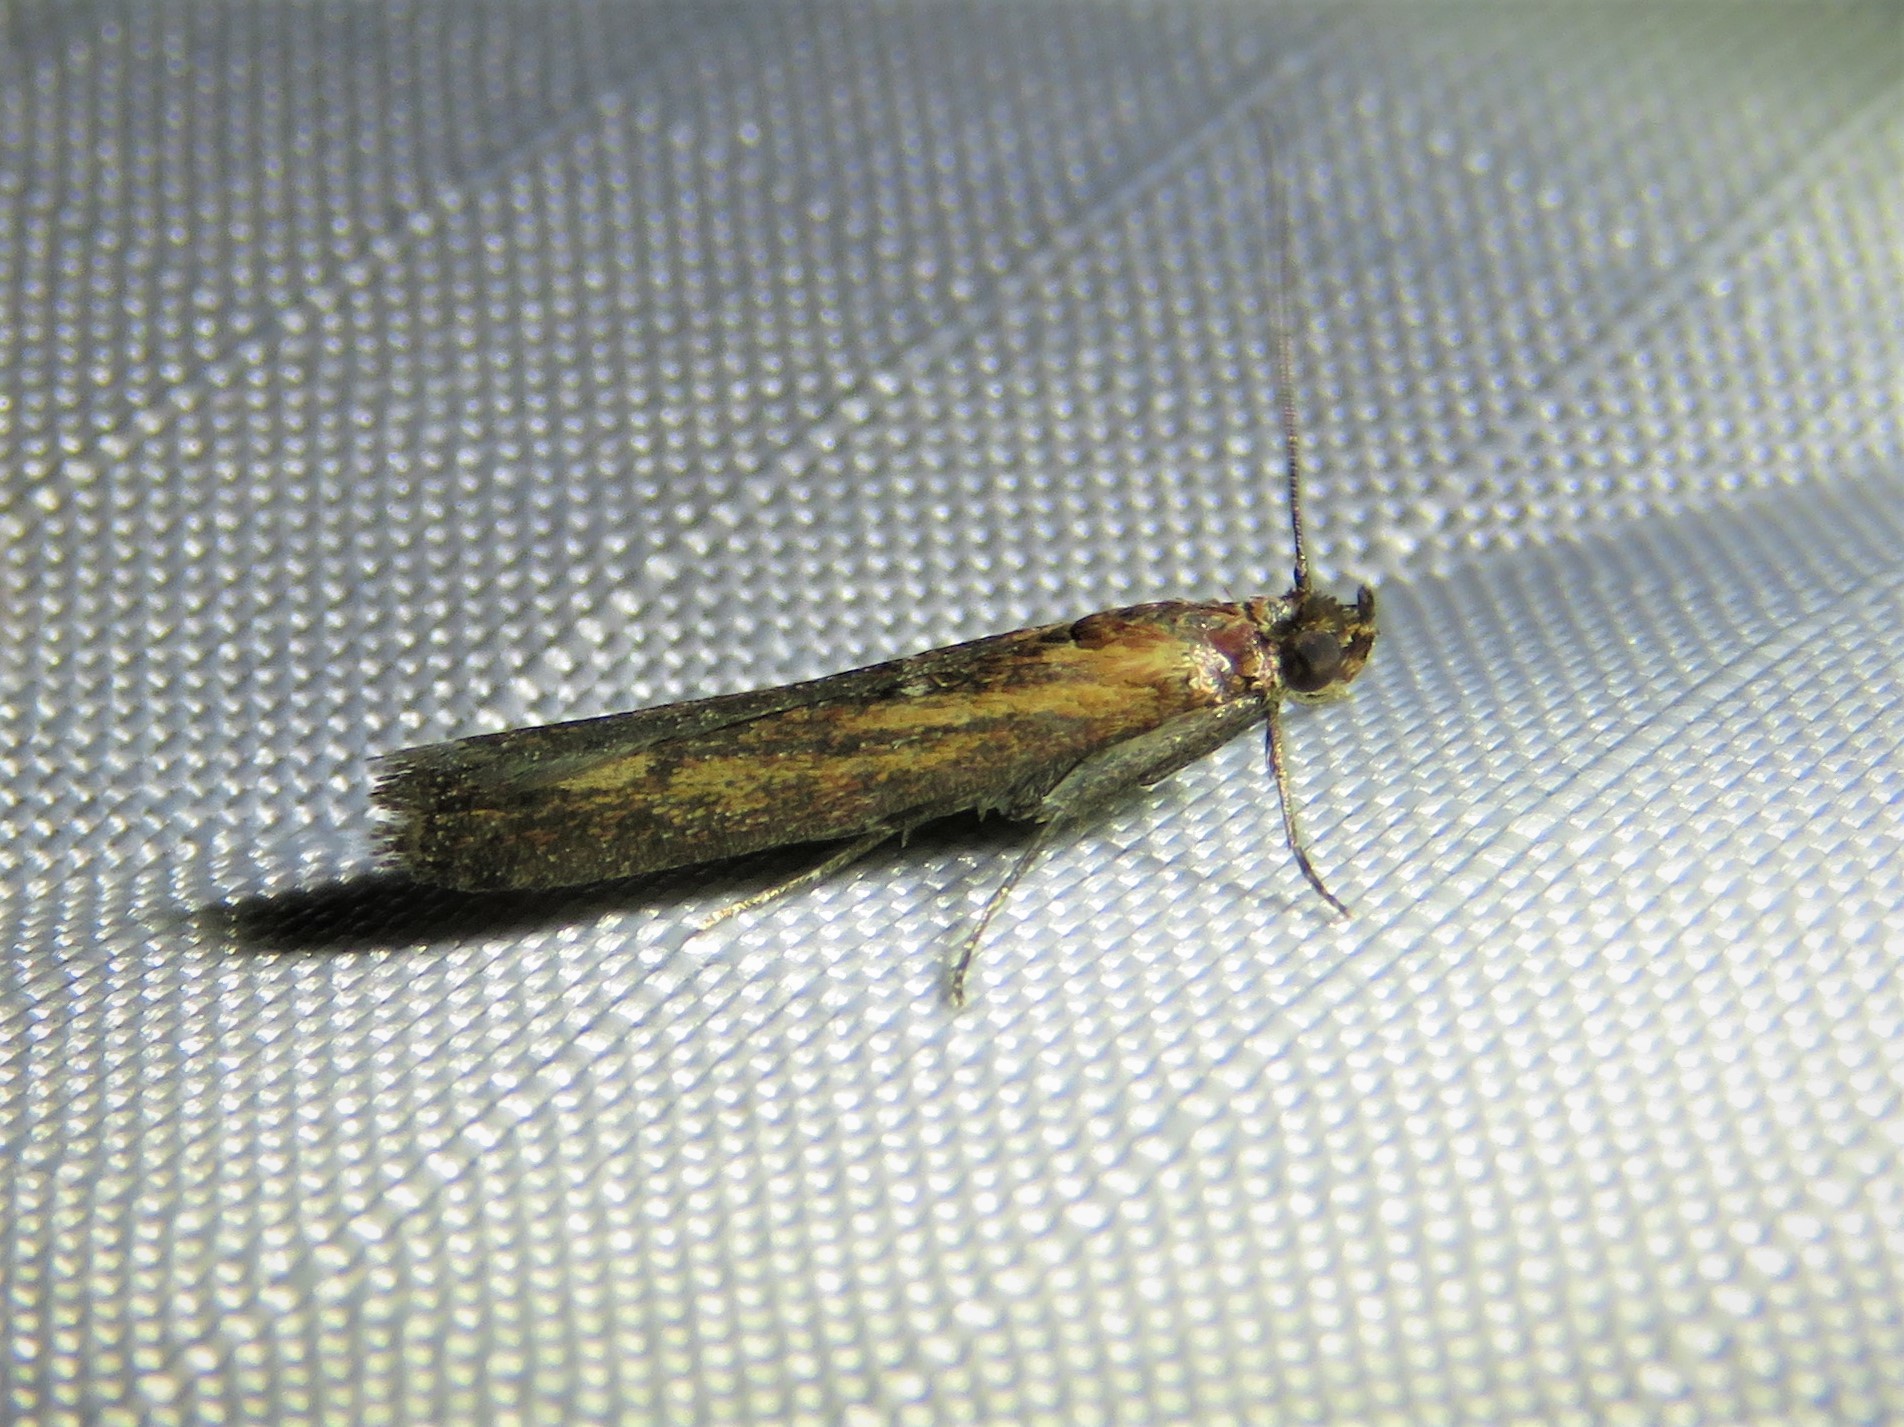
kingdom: Animalia
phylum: Arthropoda
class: Insecta
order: Lepidoptera
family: Pyralidae
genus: Elasmopalpus
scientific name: Elasmopalpus lignosella
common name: Lesser cornstalk borer
